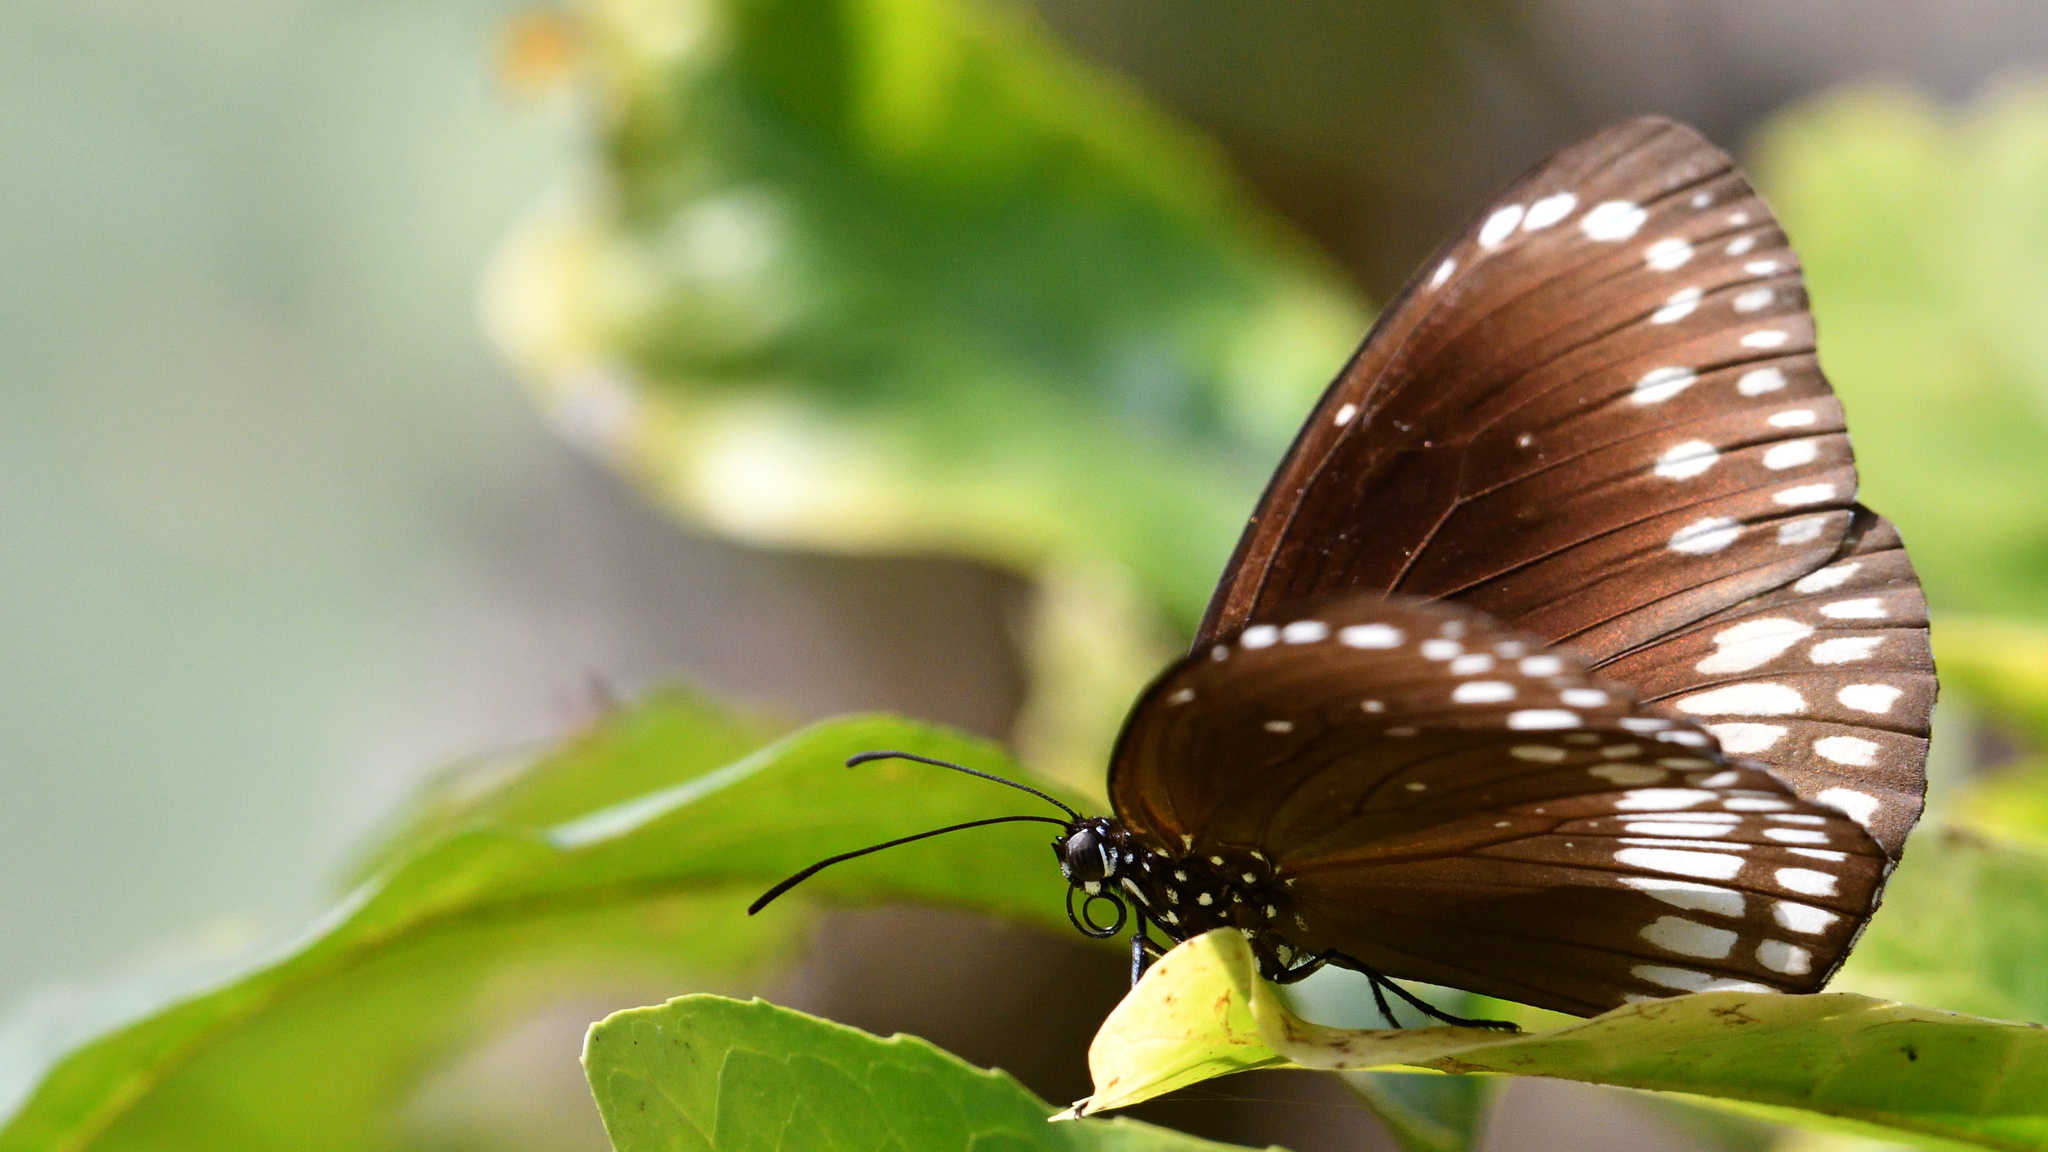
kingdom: Animalia
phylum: Arthropoda
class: Insecta
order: Lepidoptera
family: Nymphalidae
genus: Euploea
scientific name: Euploea core
